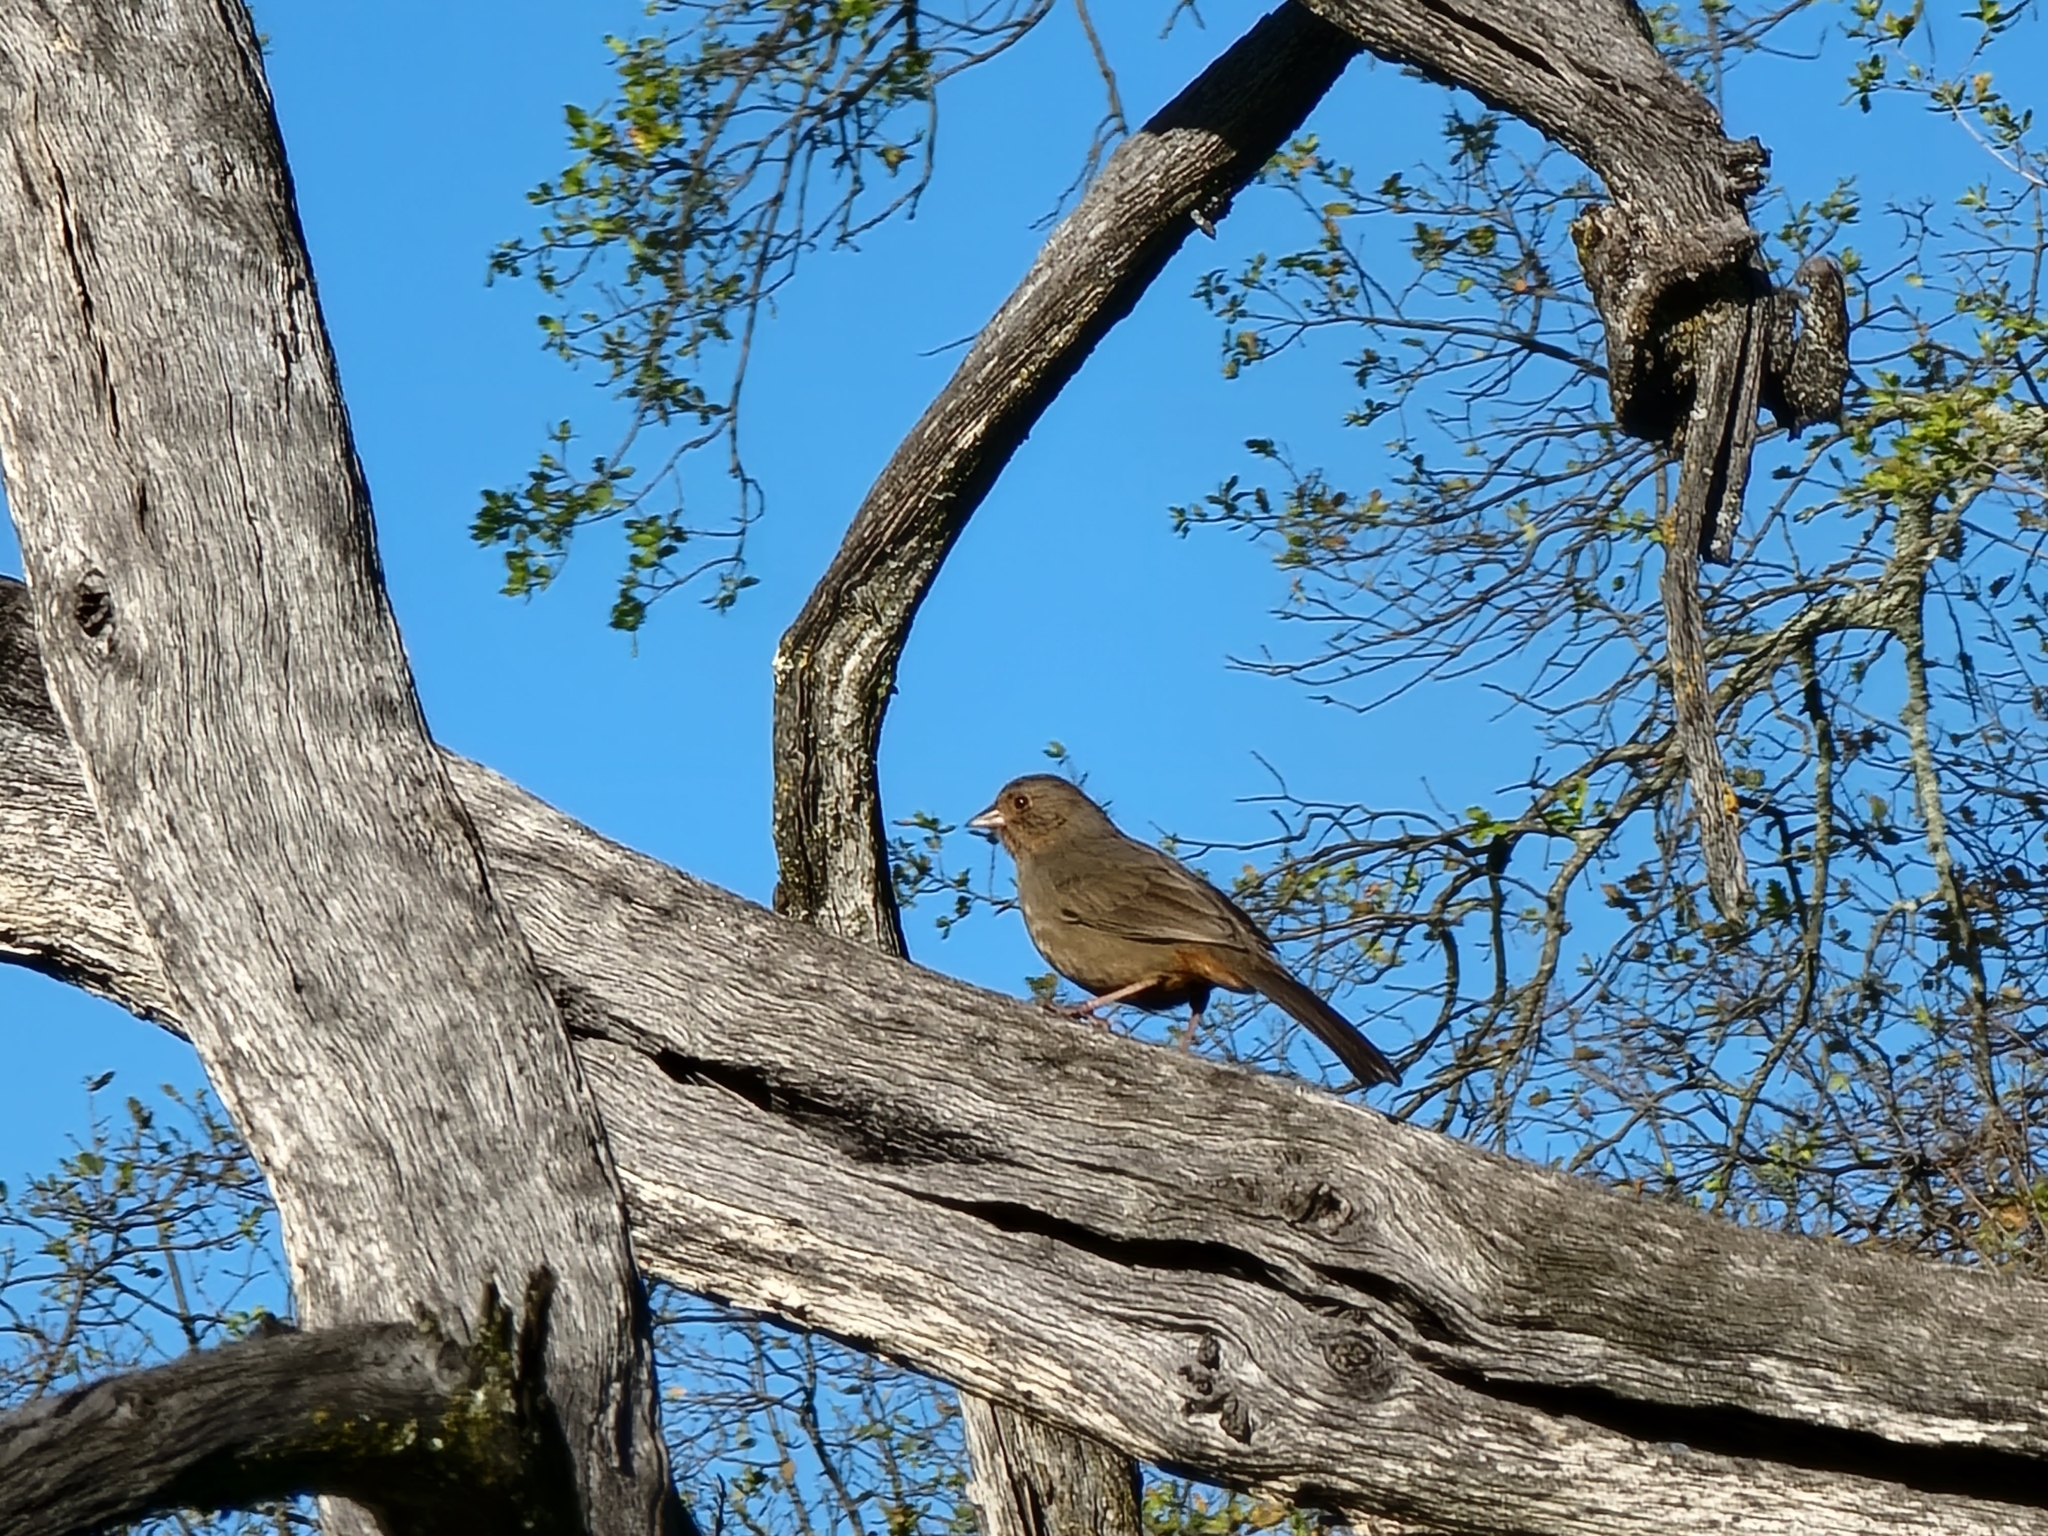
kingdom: Animalia
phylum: Chordata
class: Aves
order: Passeriformes
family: Passerellidae
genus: Melozone
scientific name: Melozone crissalis
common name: California towhee
